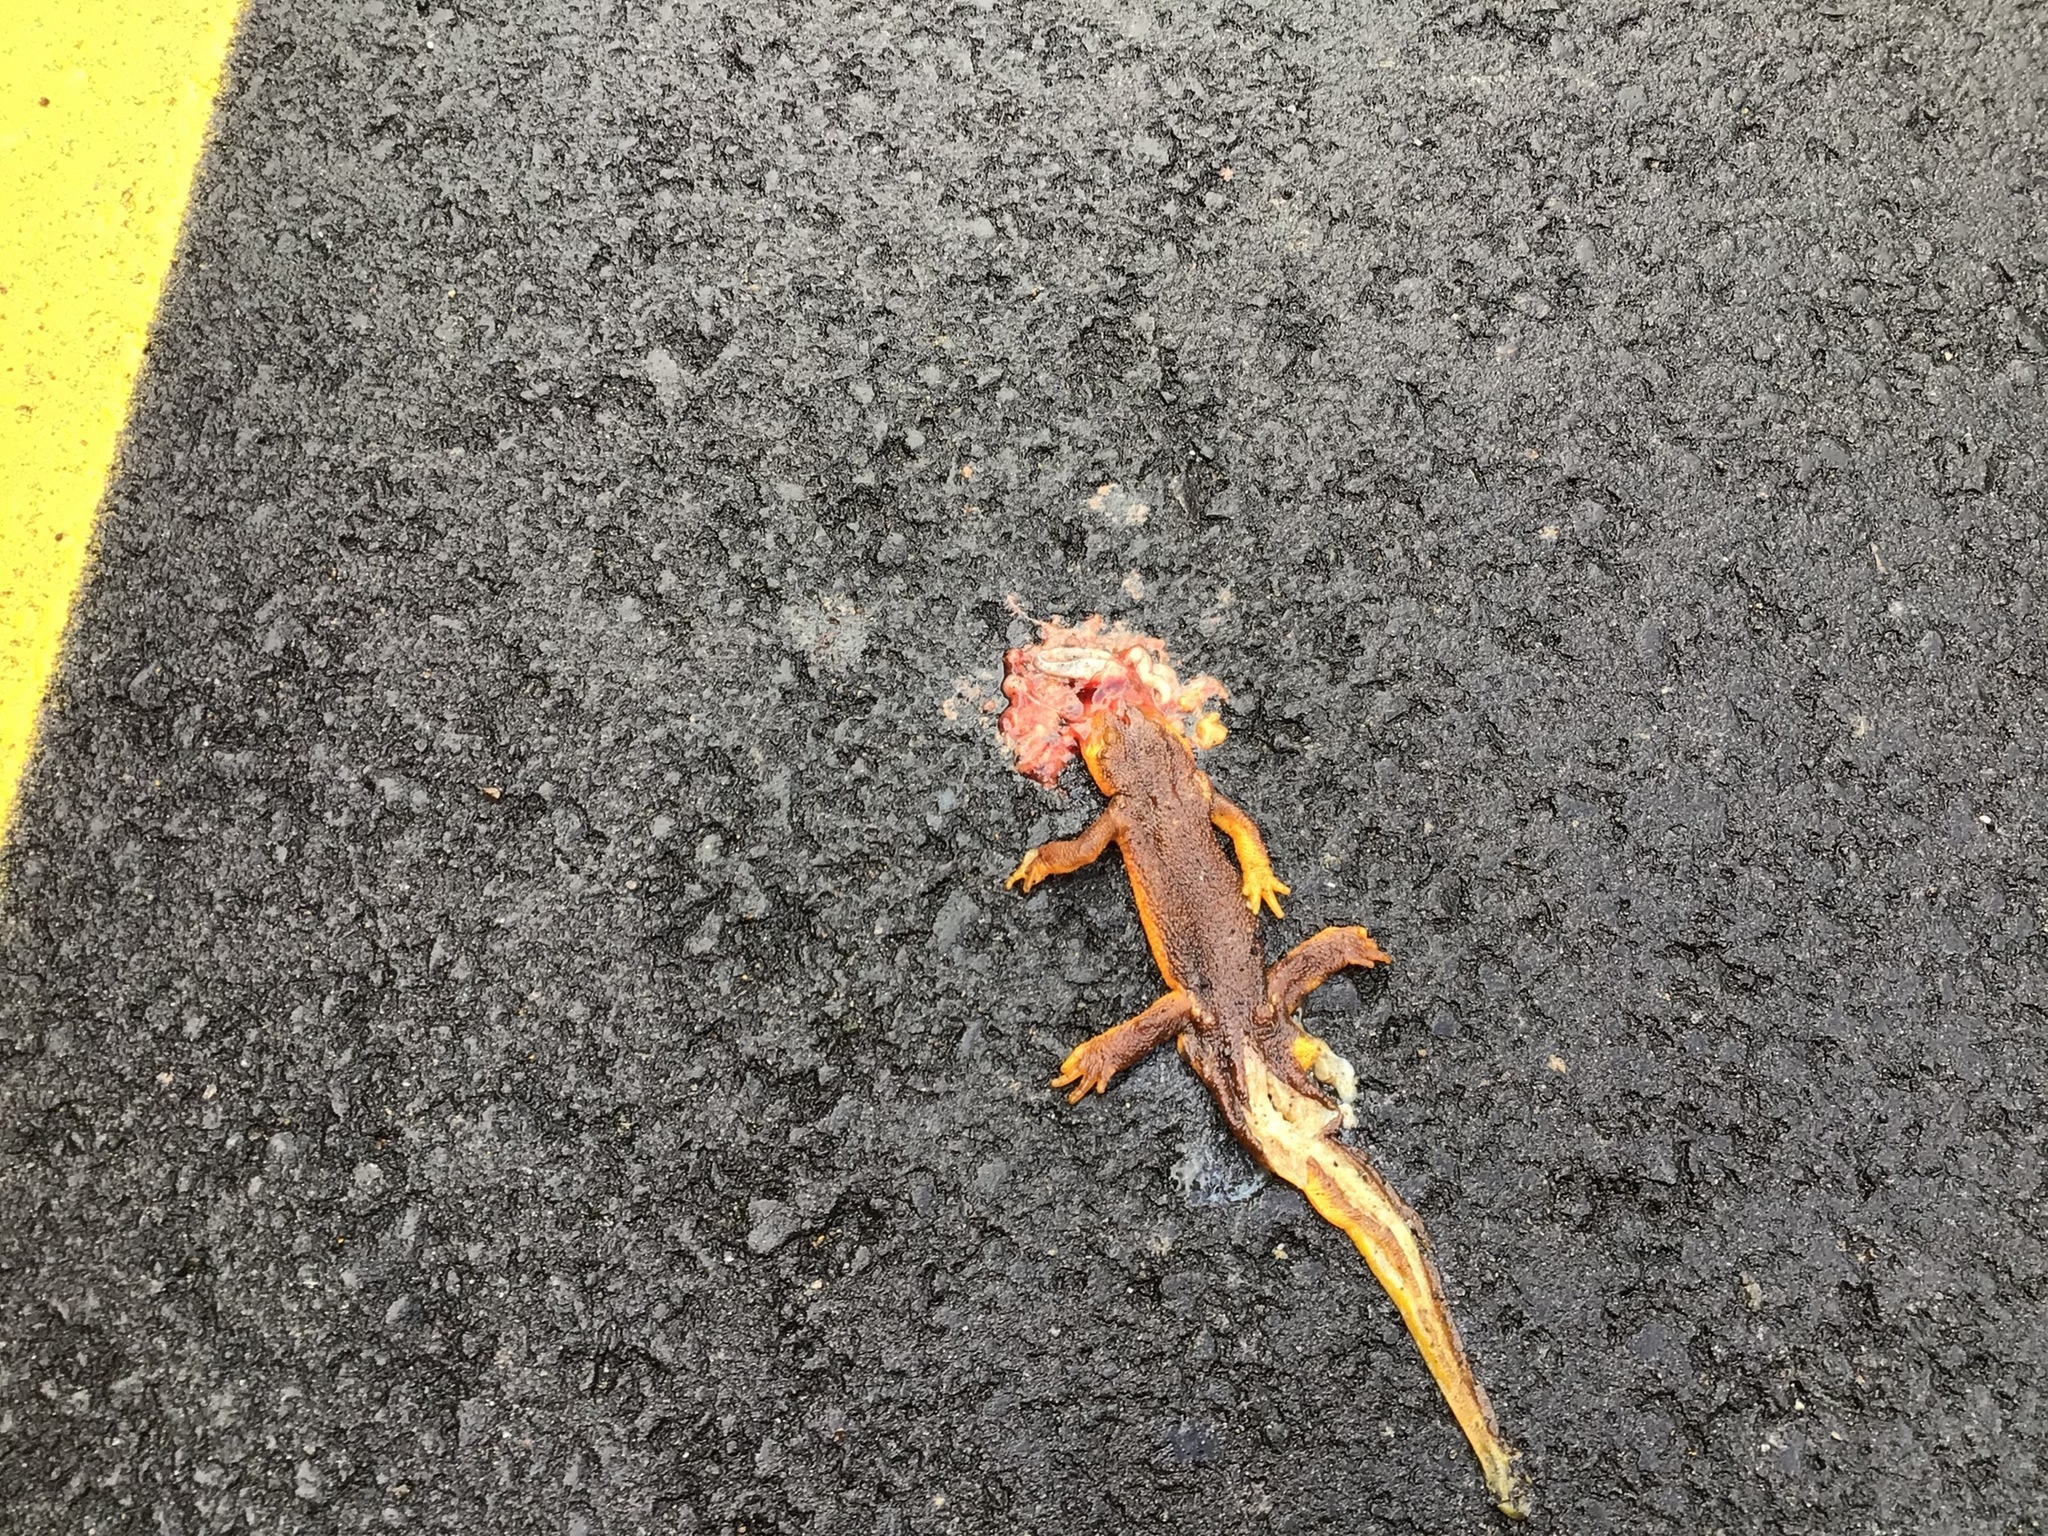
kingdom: Animalia
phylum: Chordata
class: Amphibia
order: Caudata
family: Salamandridae
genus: Taricha
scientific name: Taricha torosa
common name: California newt
